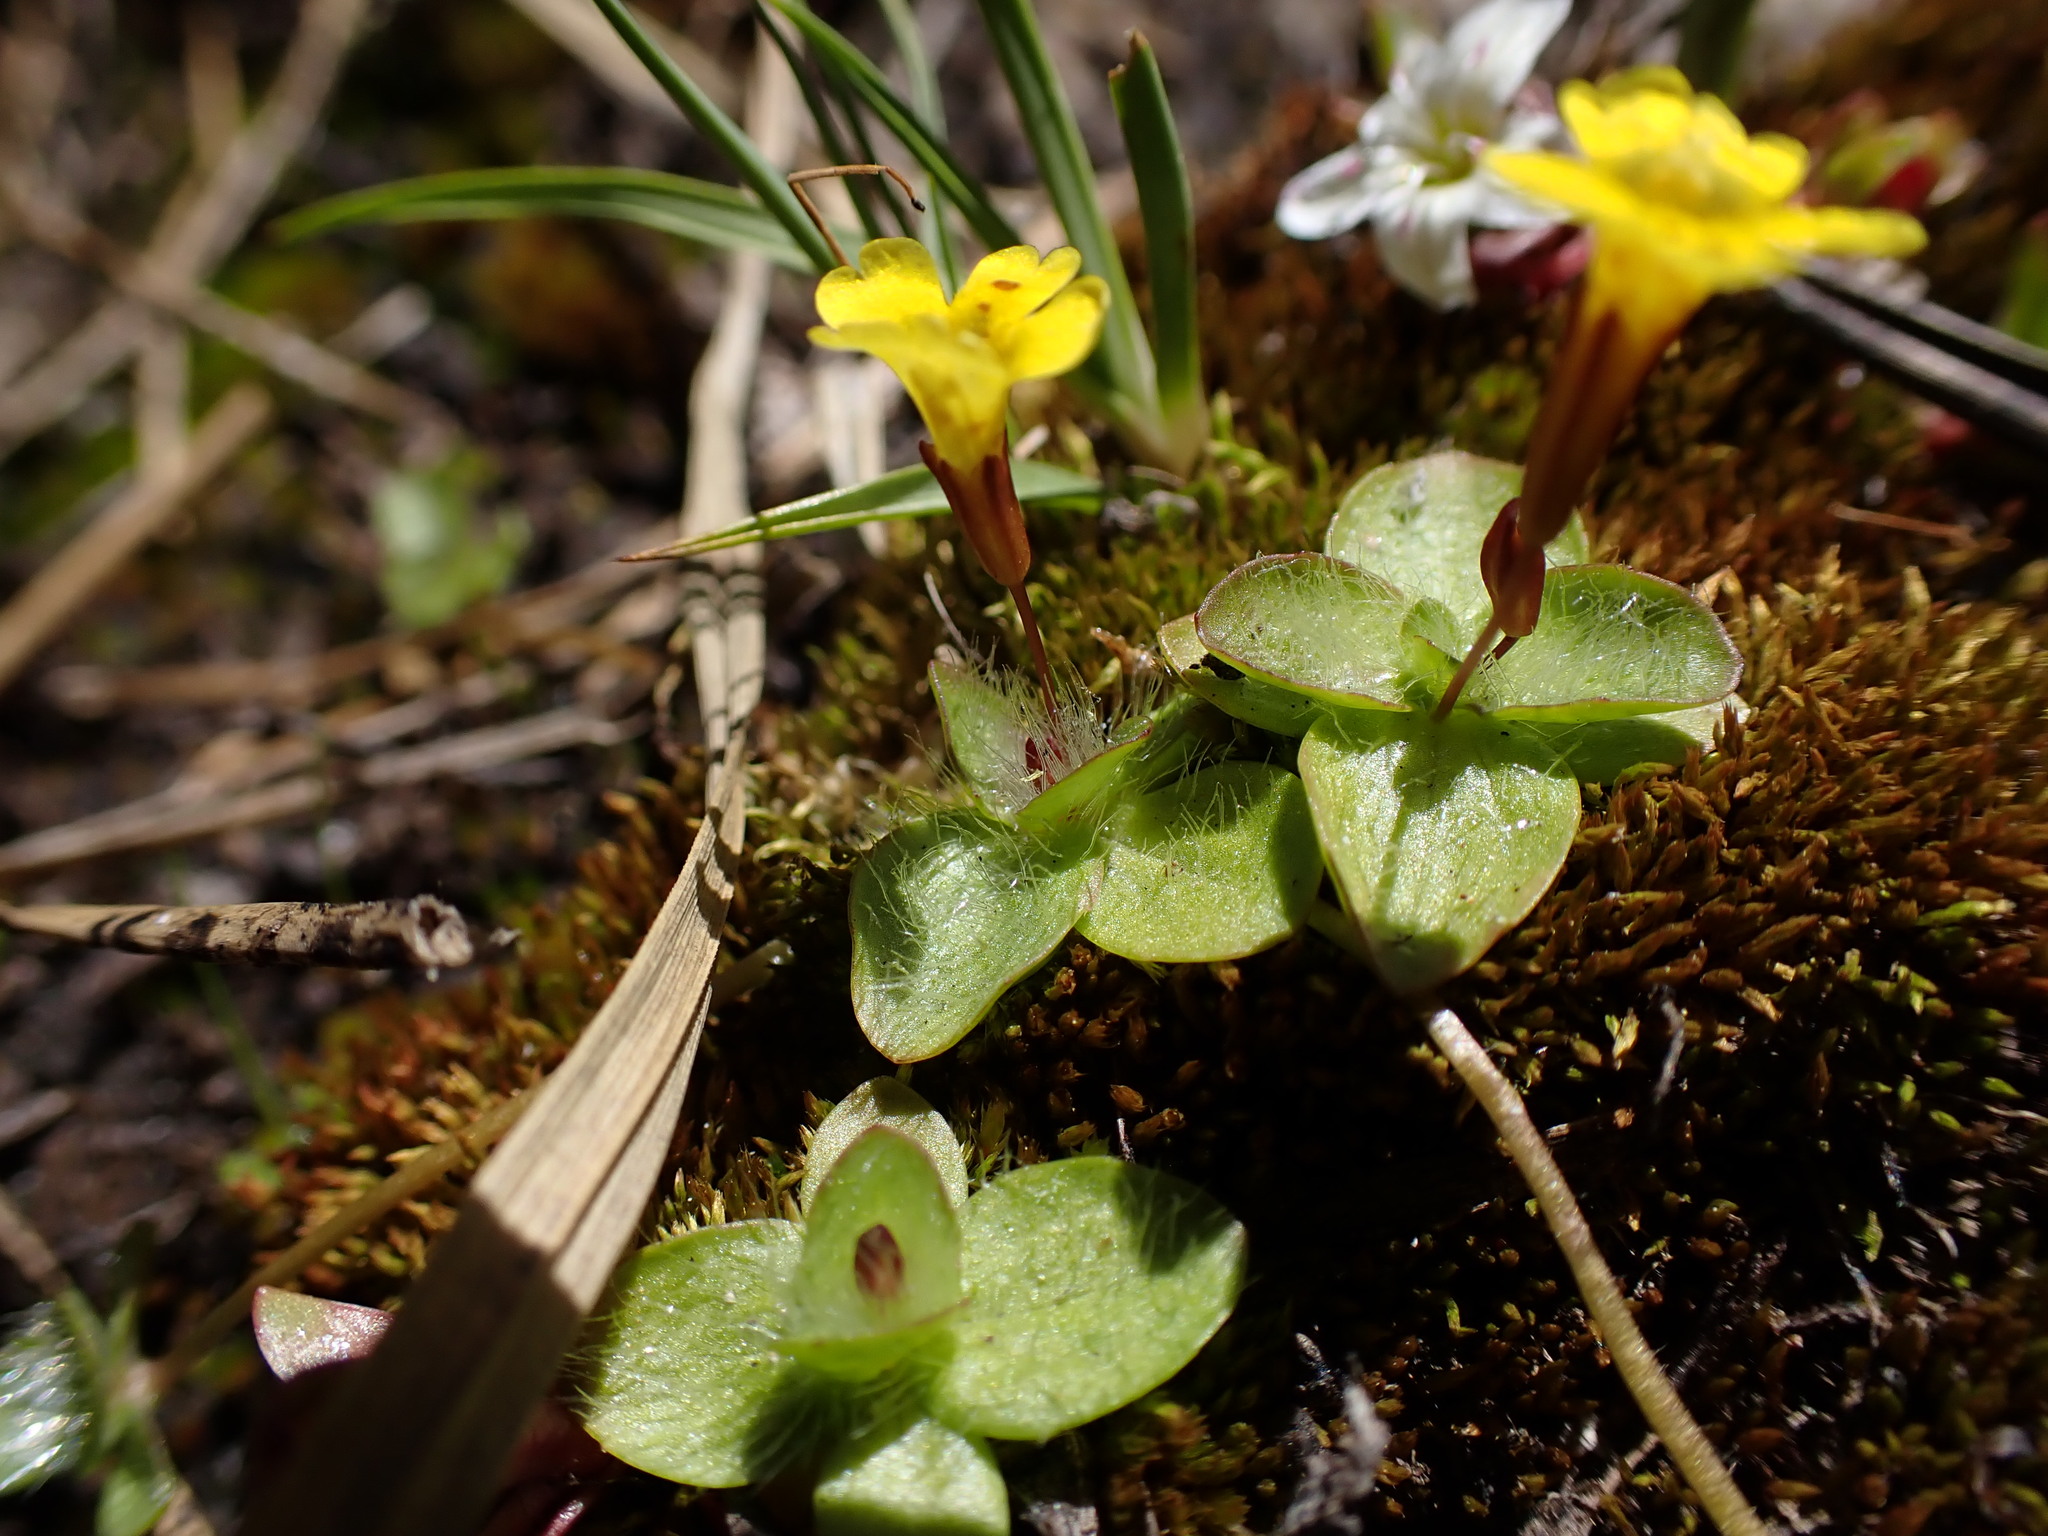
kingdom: Plantae
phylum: Tracheophyta
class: Magnoliopsida
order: Lamiales
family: Phrymaceae
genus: Erythranthe
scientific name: Erythranthe primuloides
